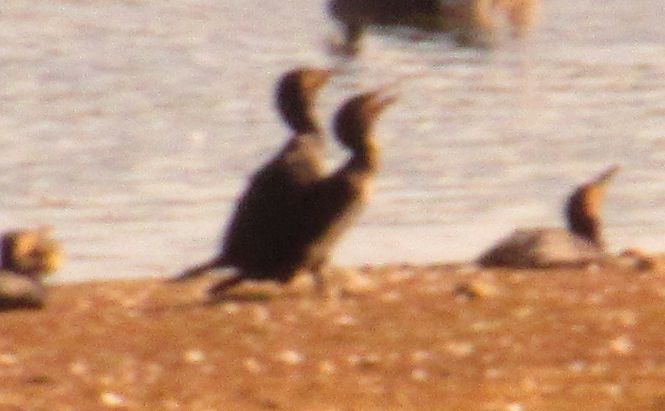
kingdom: Animalia
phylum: Chordata
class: Aves
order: Suliformes
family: Phalacrocoracidae
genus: Phalacrocorax
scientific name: Phalacrocorax carbo
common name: Great cormorant
